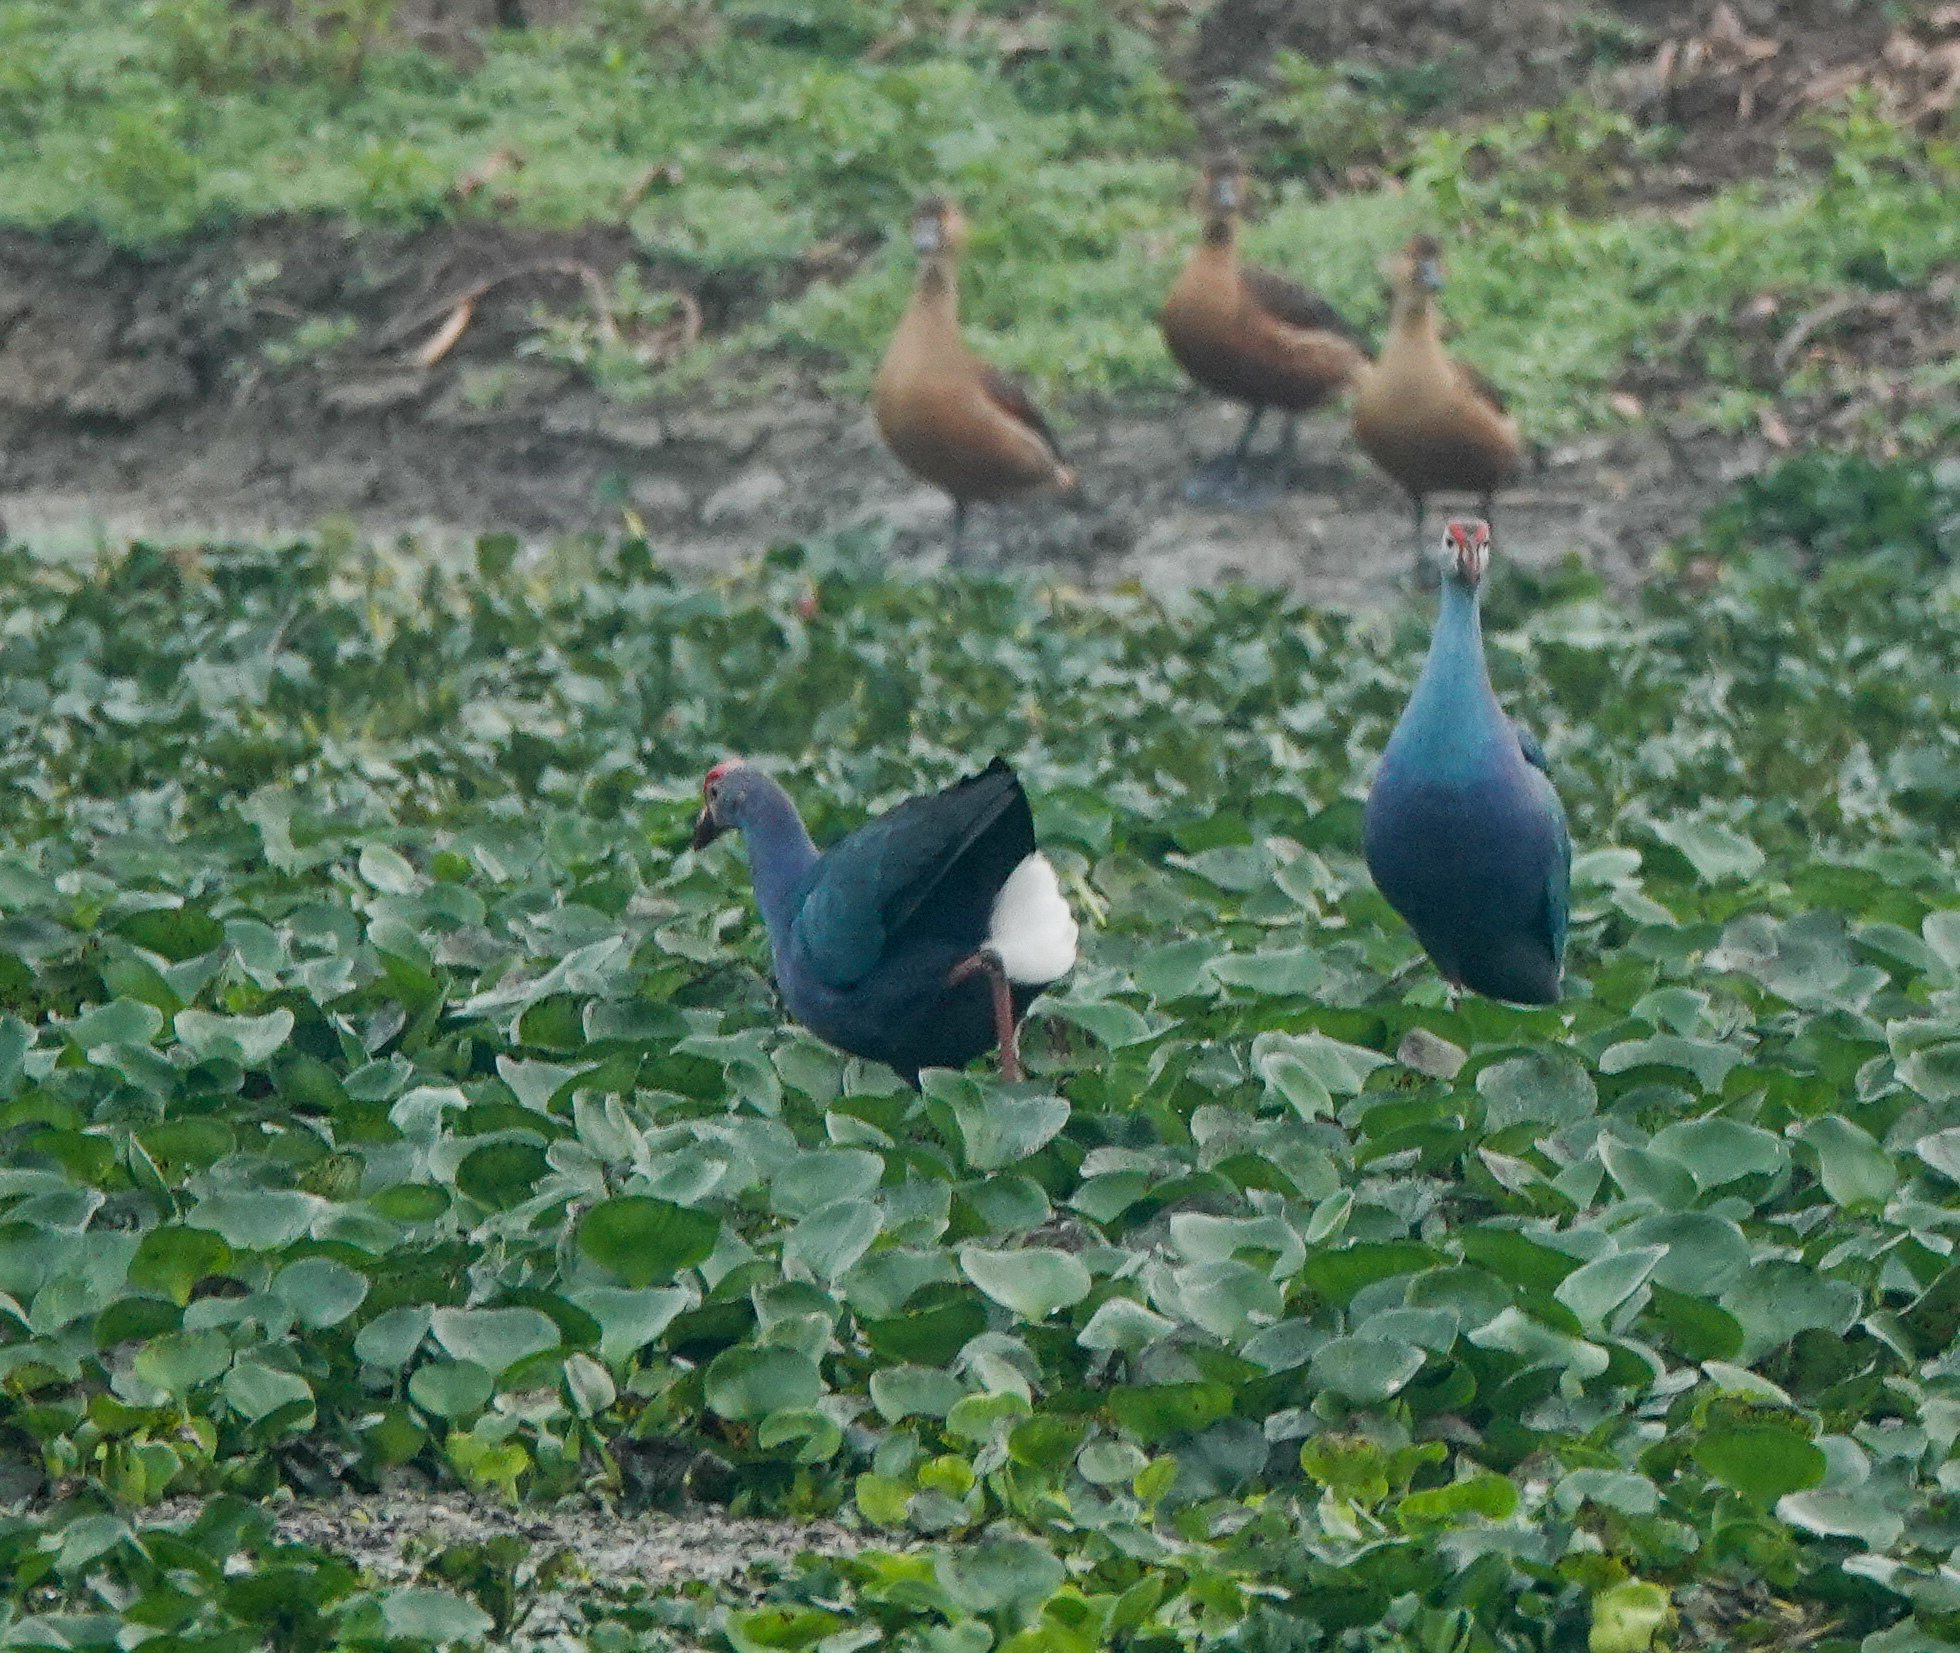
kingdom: Animalia
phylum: Chordata
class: Aves
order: Gruiformes
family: Rallidae
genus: Porphyrio
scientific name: Porphyrio porphyrio
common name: Purple swamphen
